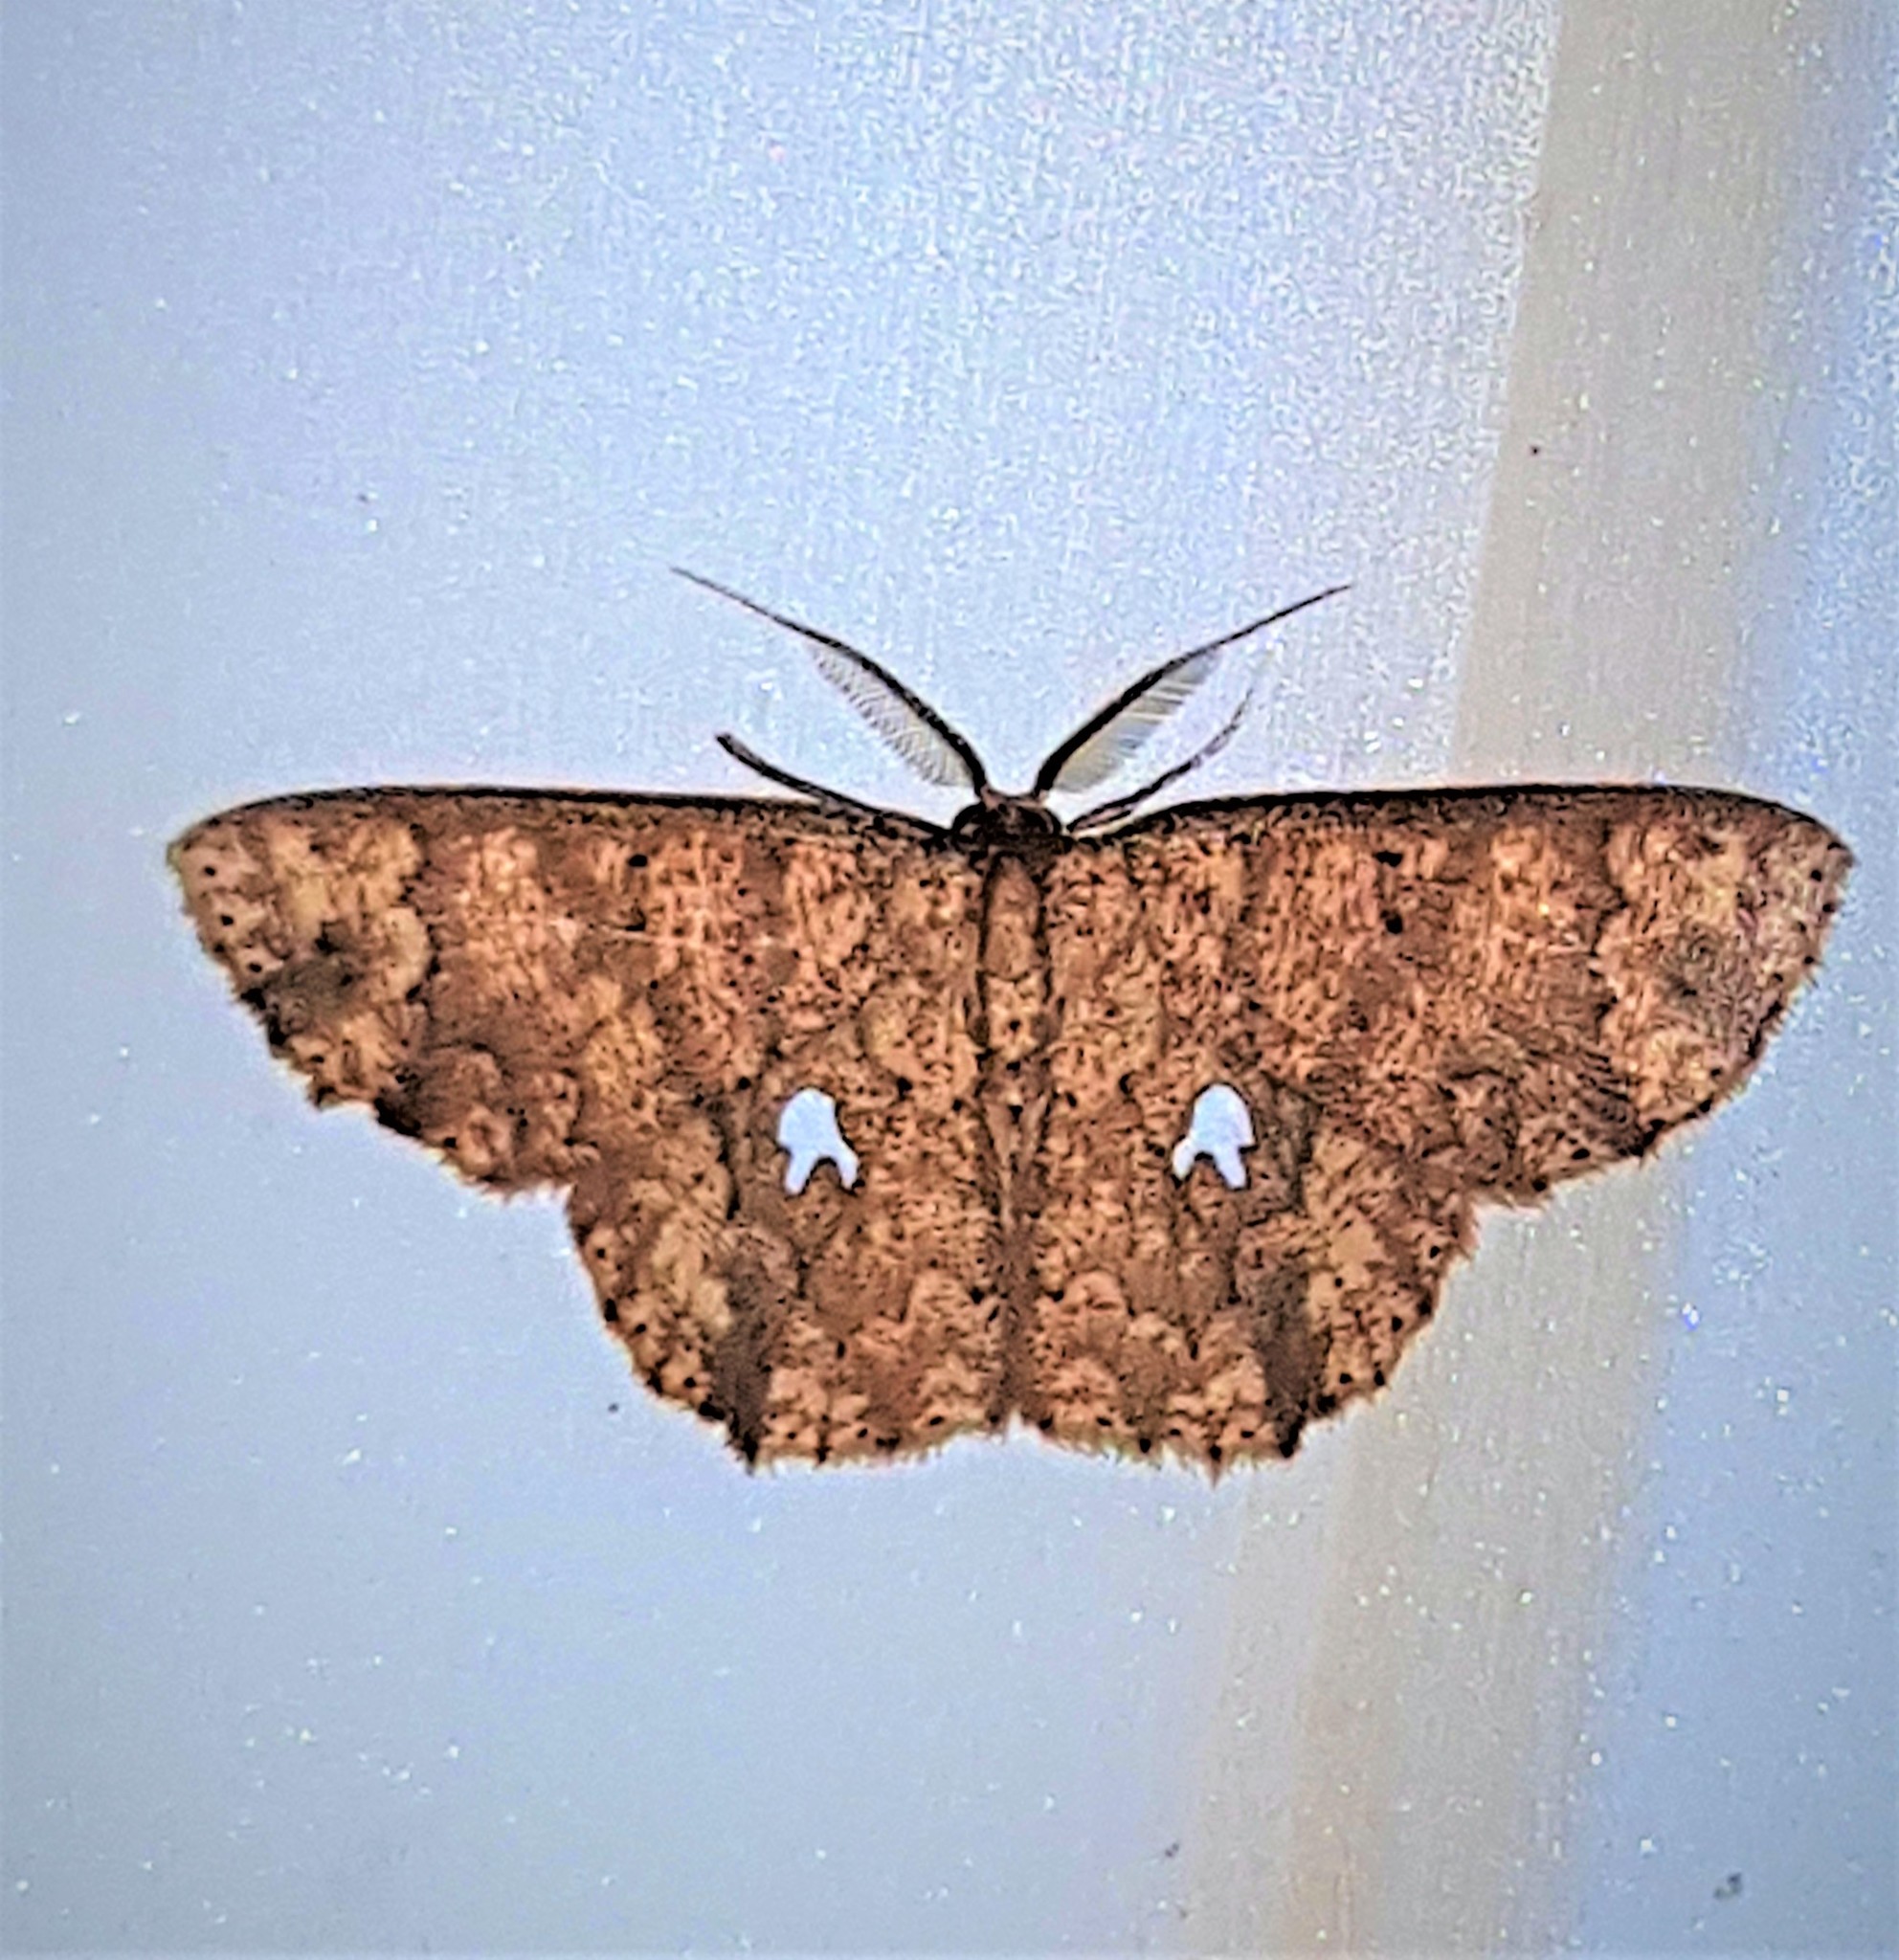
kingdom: Animalia
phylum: Arthropoda
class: Insecta
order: Lepidoptera
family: Geometridae
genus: Cyclophora
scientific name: Cyclophora nodigera
